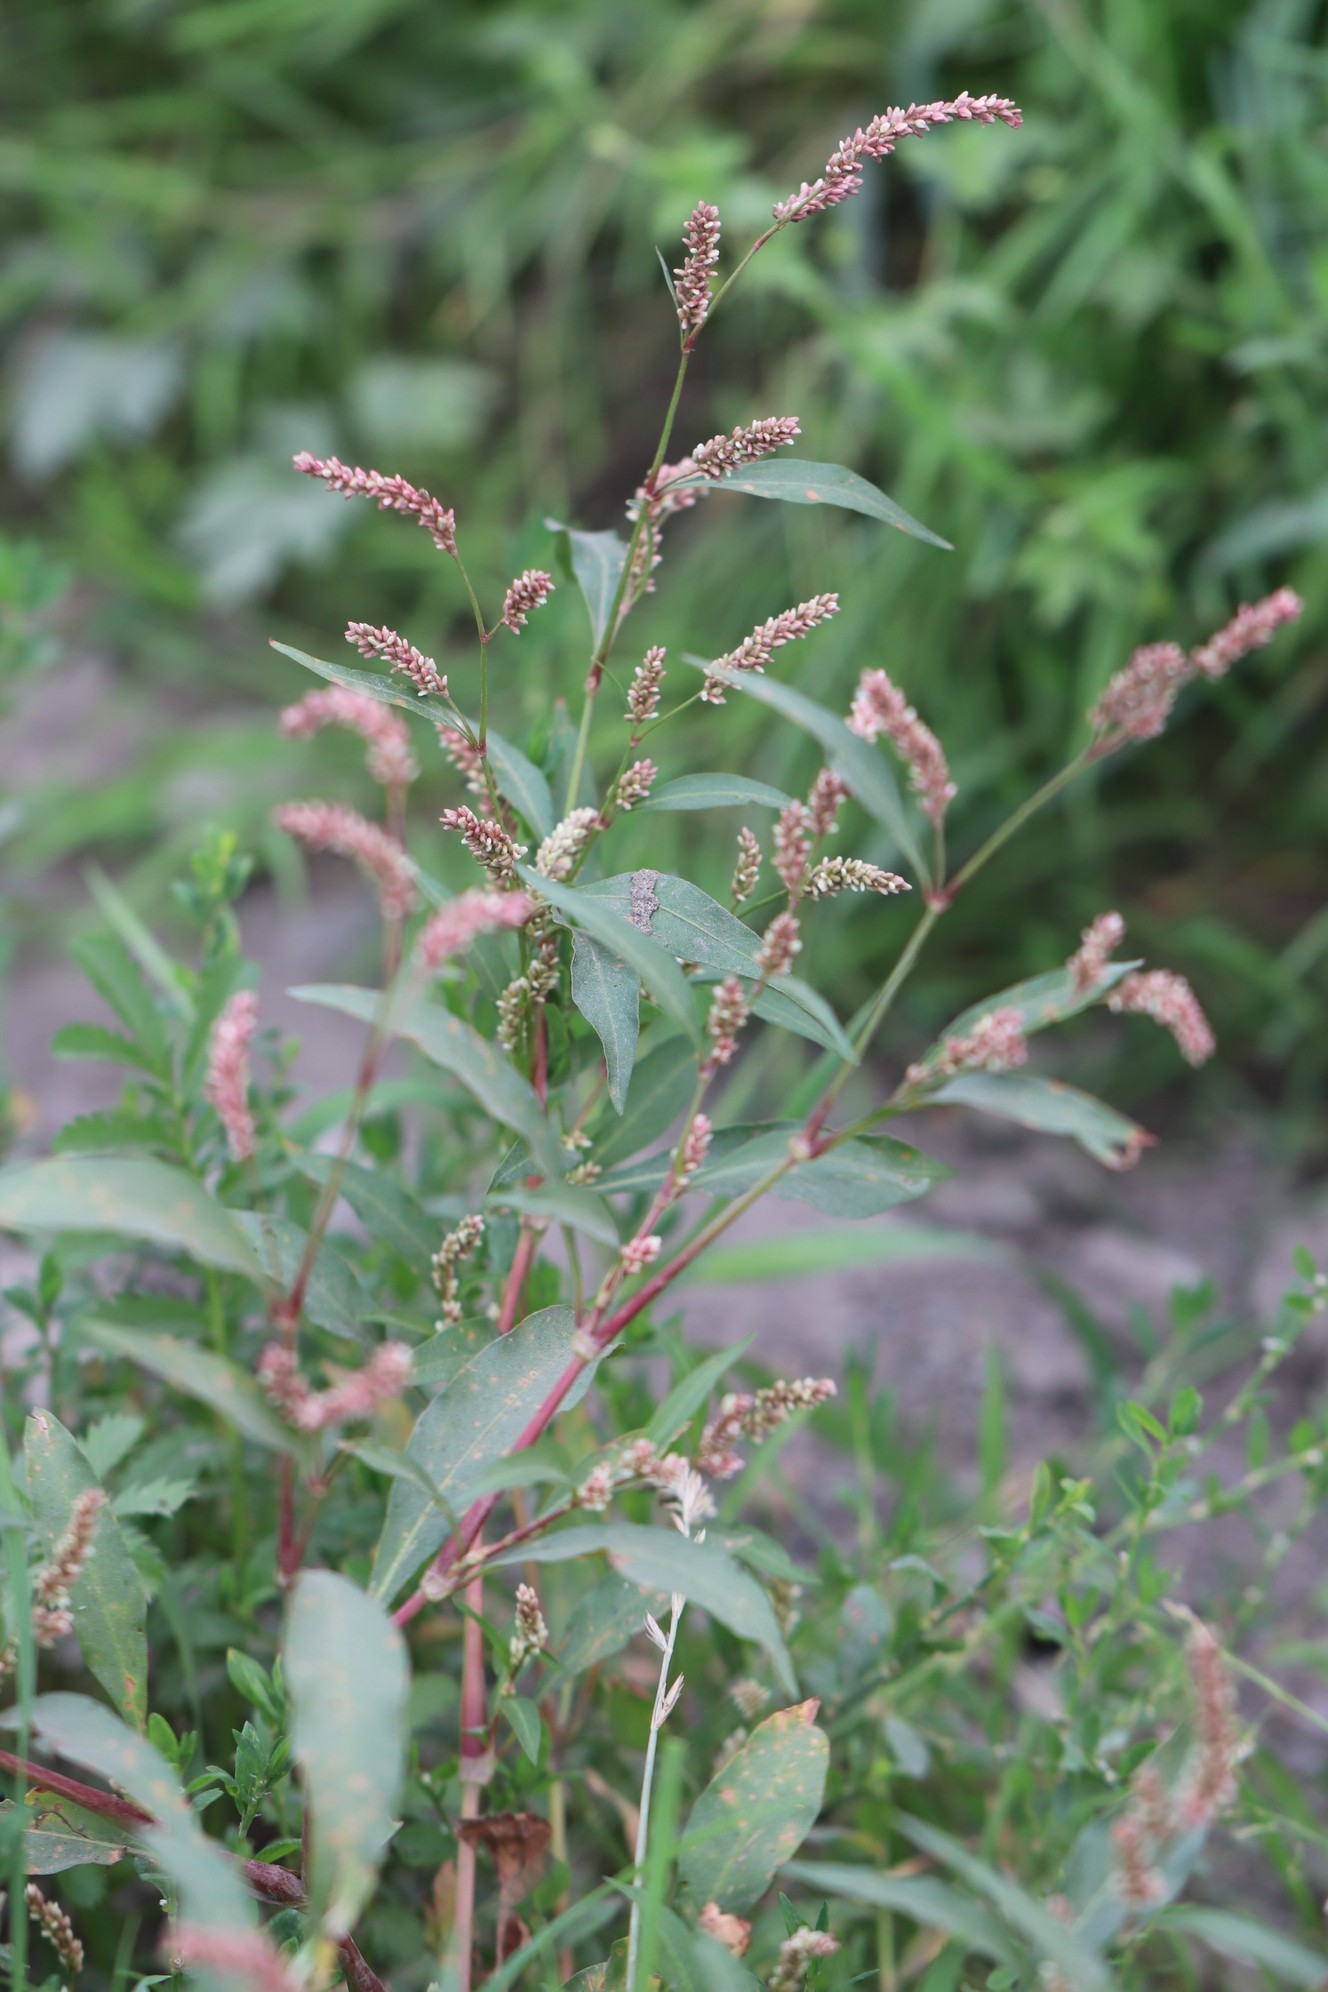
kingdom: Plantae
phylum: Tracheophyta
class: Magnoliopsida
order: Caryophyllales
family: Polygonaceae
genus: Persicaria
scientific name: Persicaria lapathifolia
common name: Curlytop knotweed
